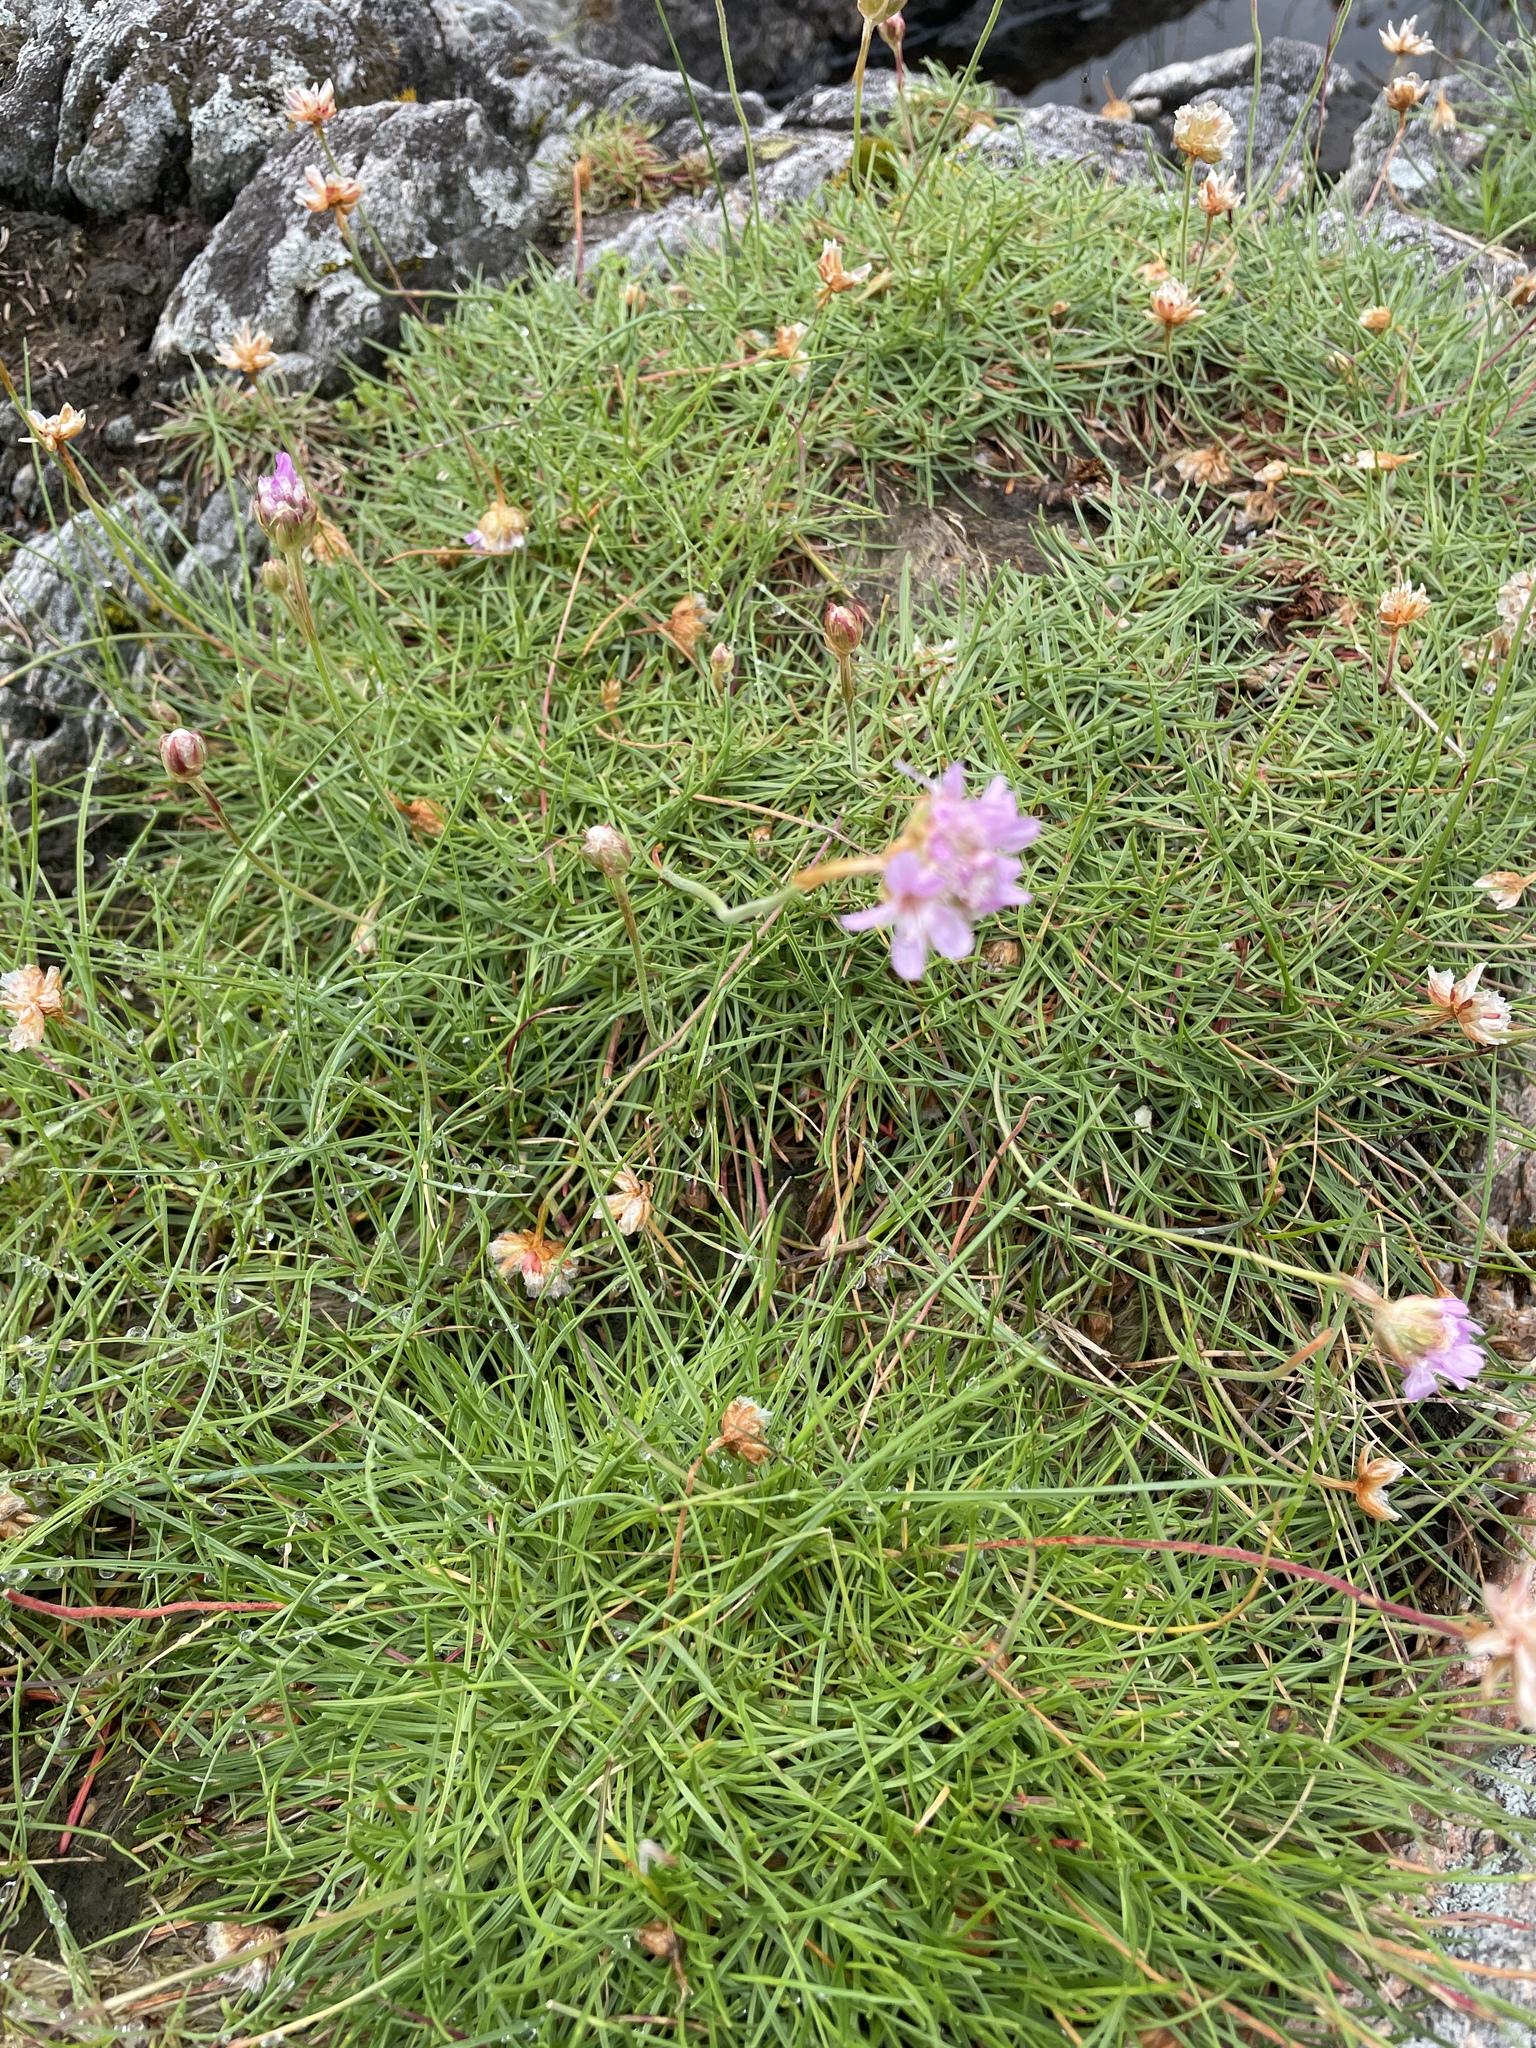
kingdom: Plantae
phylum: Tracheophyta
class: Magnoliopsida
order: Caryophyllales
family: Plumbaginaceae
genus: Armeria
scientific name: Armeria maritima
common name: Thrift
